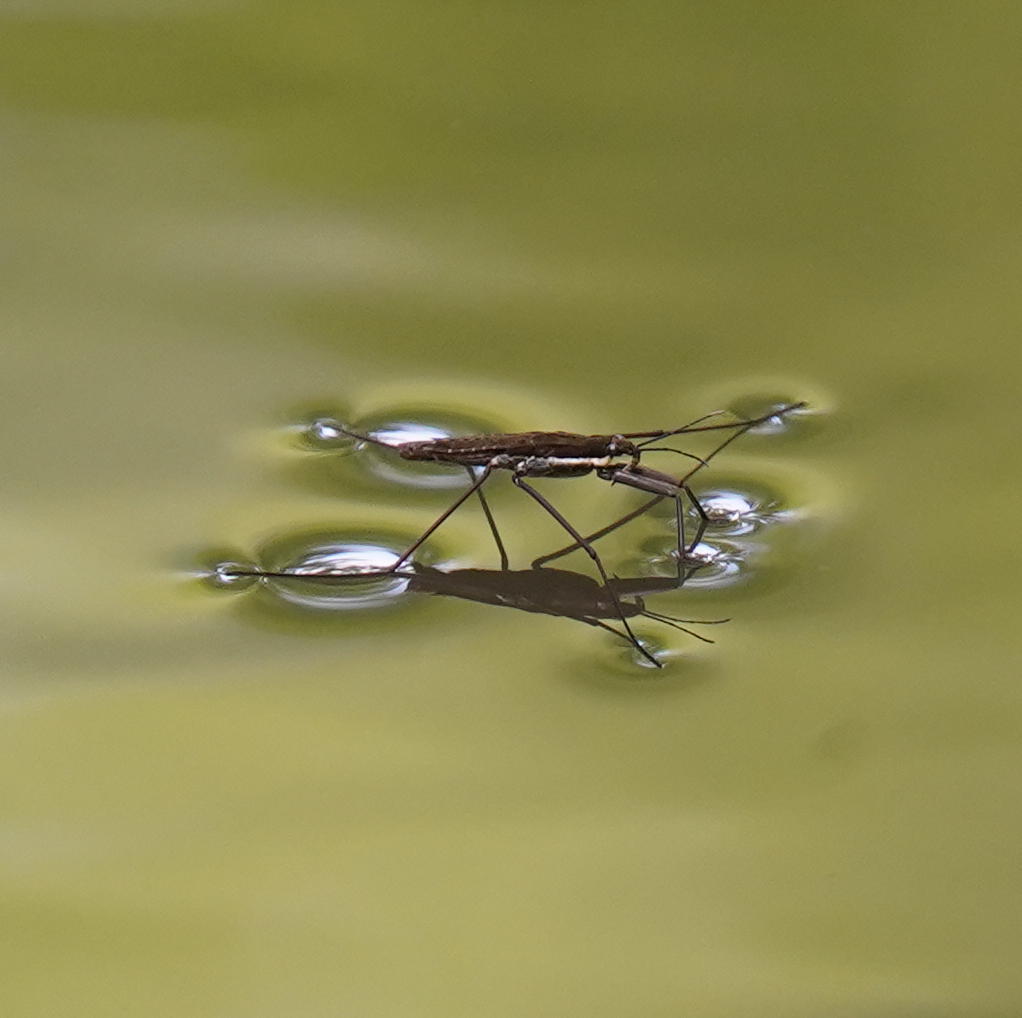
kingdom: Animalia
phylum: Arthropoda
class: Insecta
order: Hemiptera
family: Gerridae
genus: Aquarius
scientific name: Aquarius remigis
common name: Common water strider
